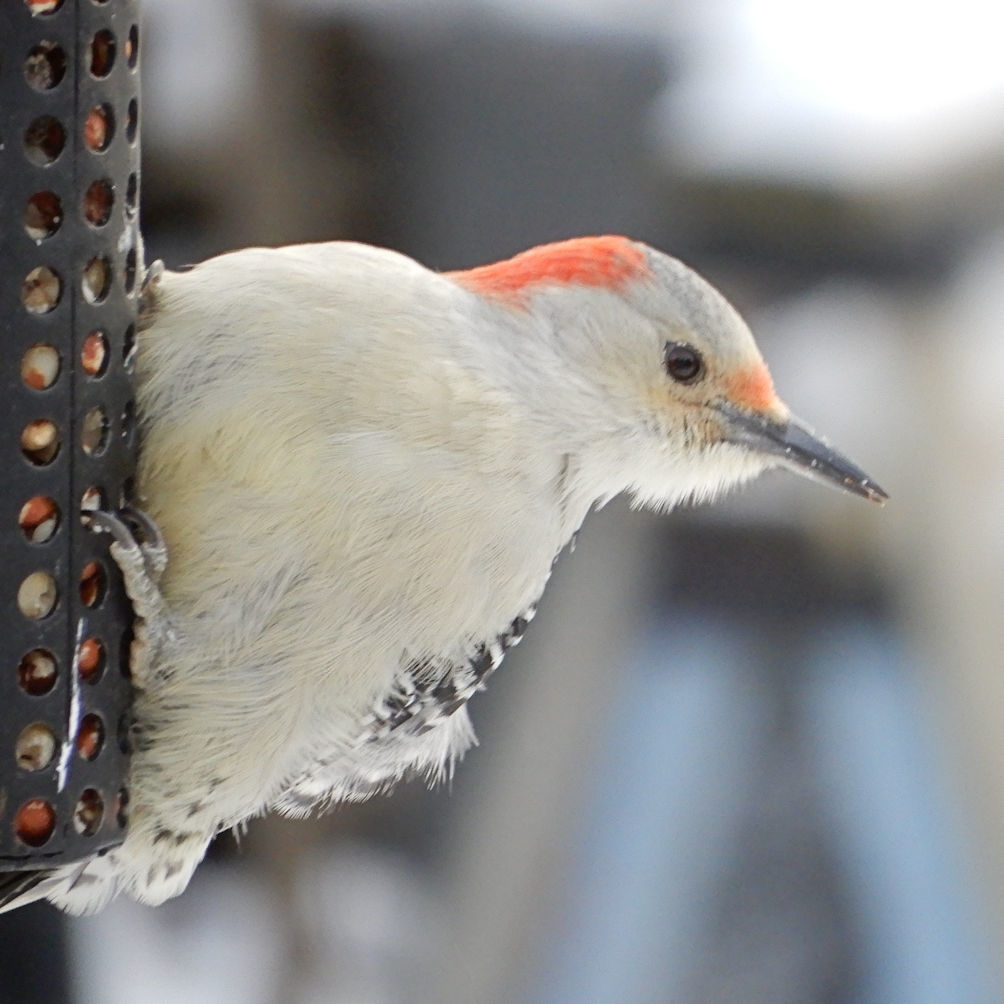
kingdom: Animalia
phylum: Chordata
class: Aves
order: Piciformes
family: Picidae
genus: Melanerpes
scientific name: Melanerpes carolinus
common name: Red-bellied woodpecker
